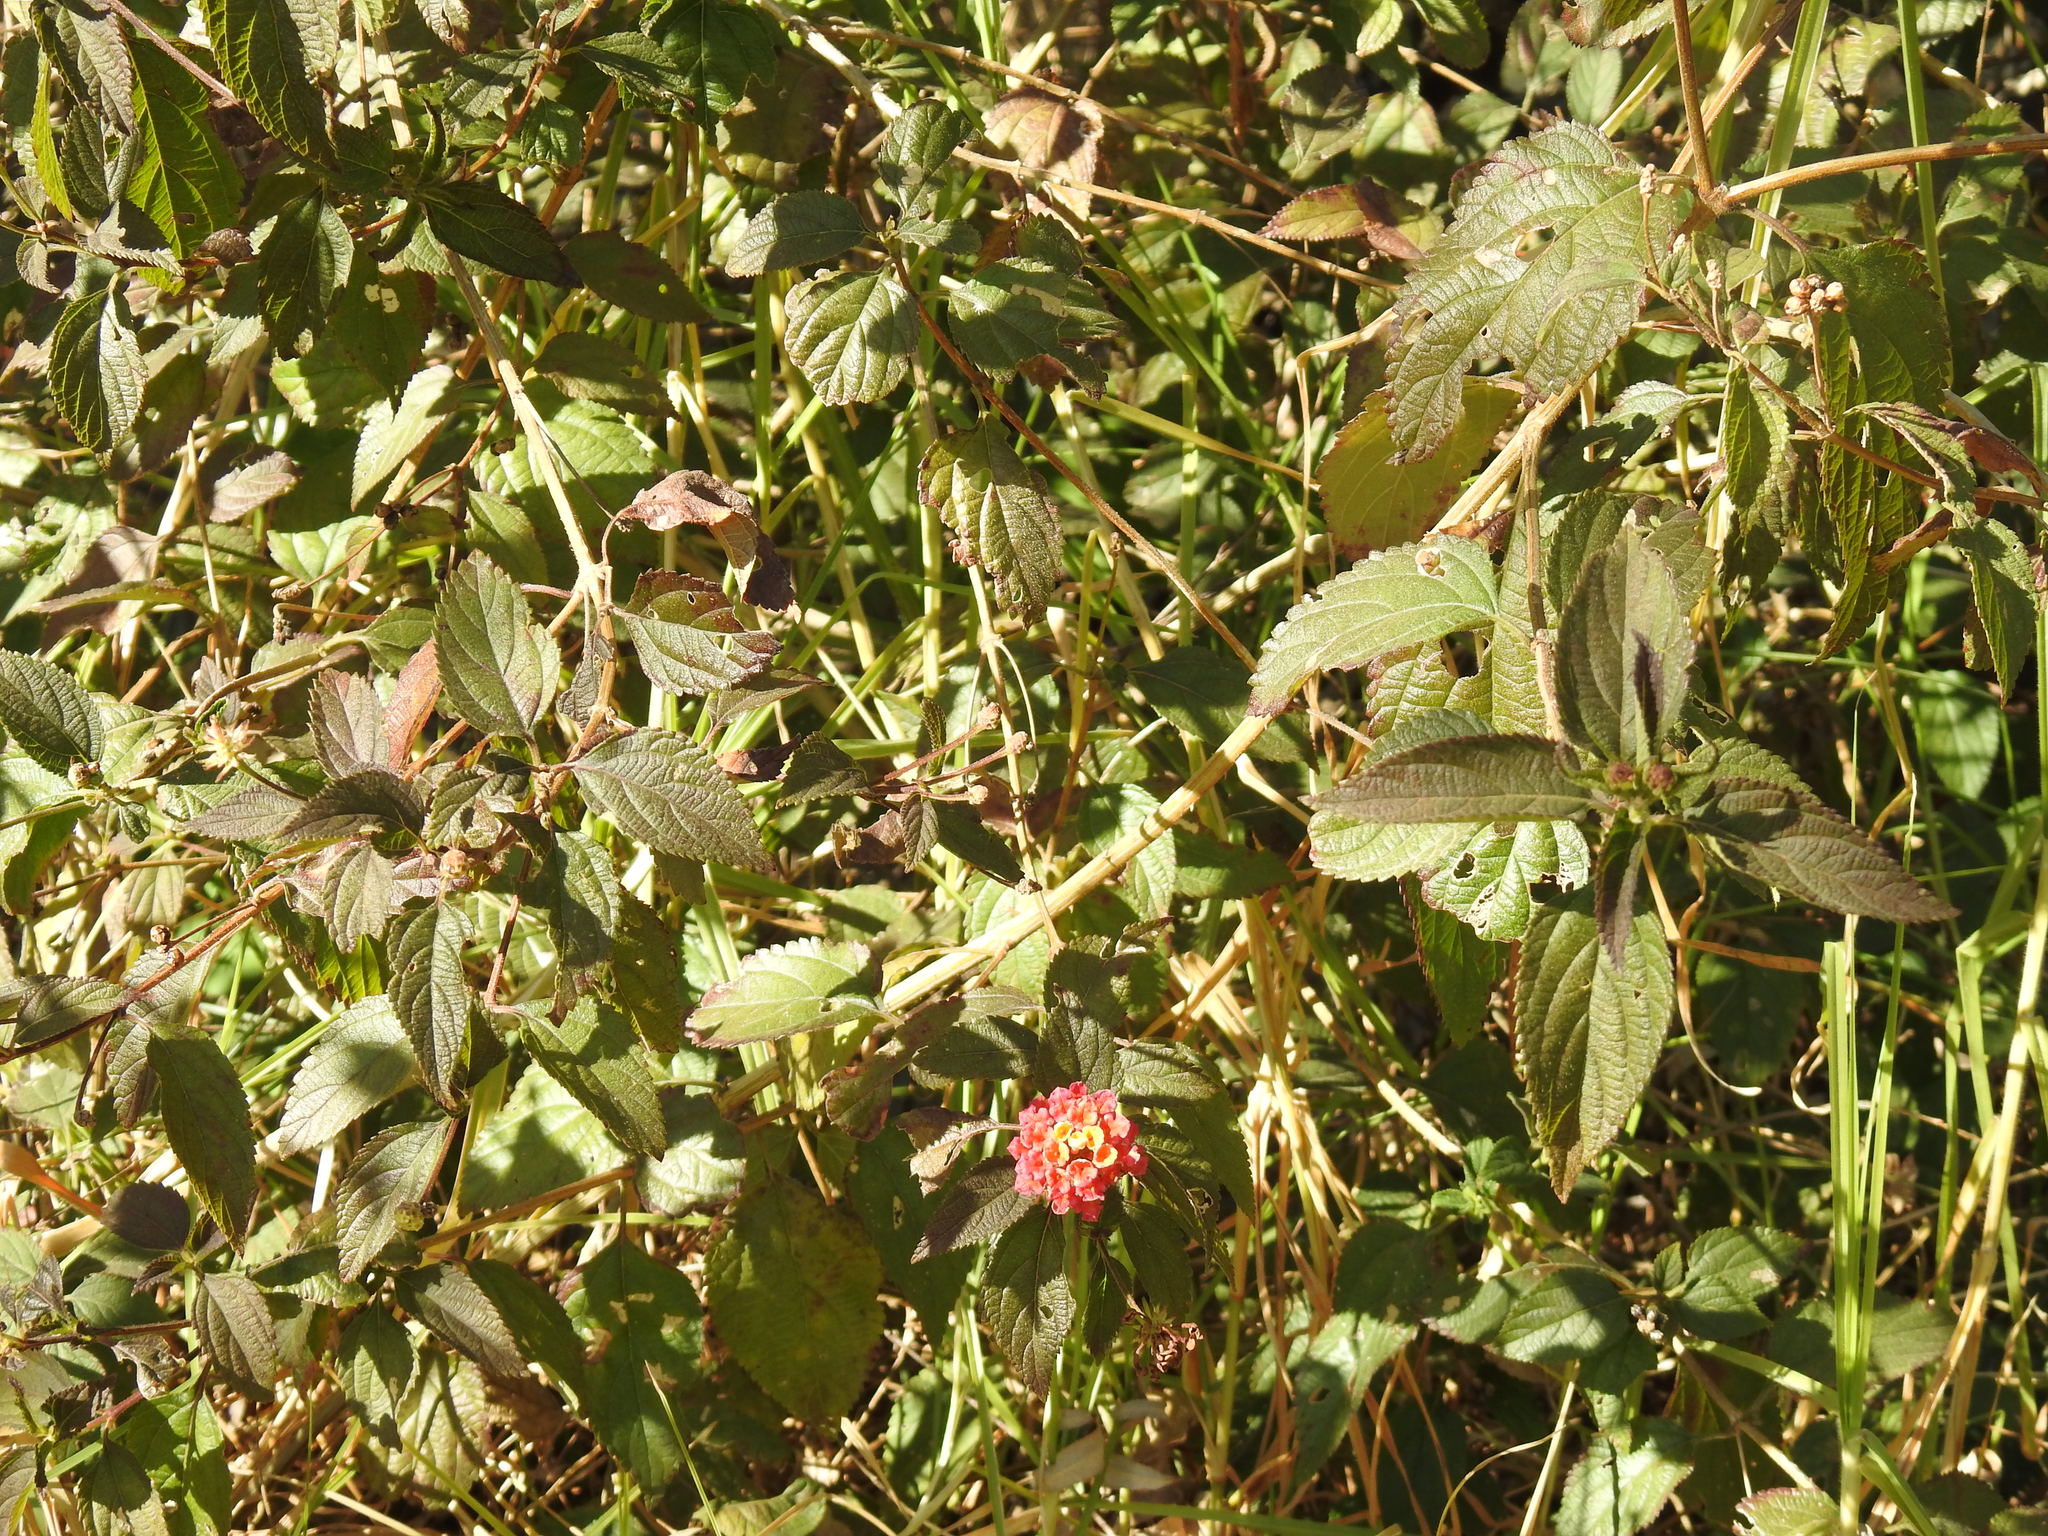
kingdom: Plantae
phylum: Tracheophyta
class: Magnoliopsida
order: Lamiales
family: Verbenaceae
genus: Lantana
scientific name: Lantana camara
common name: Lantana
